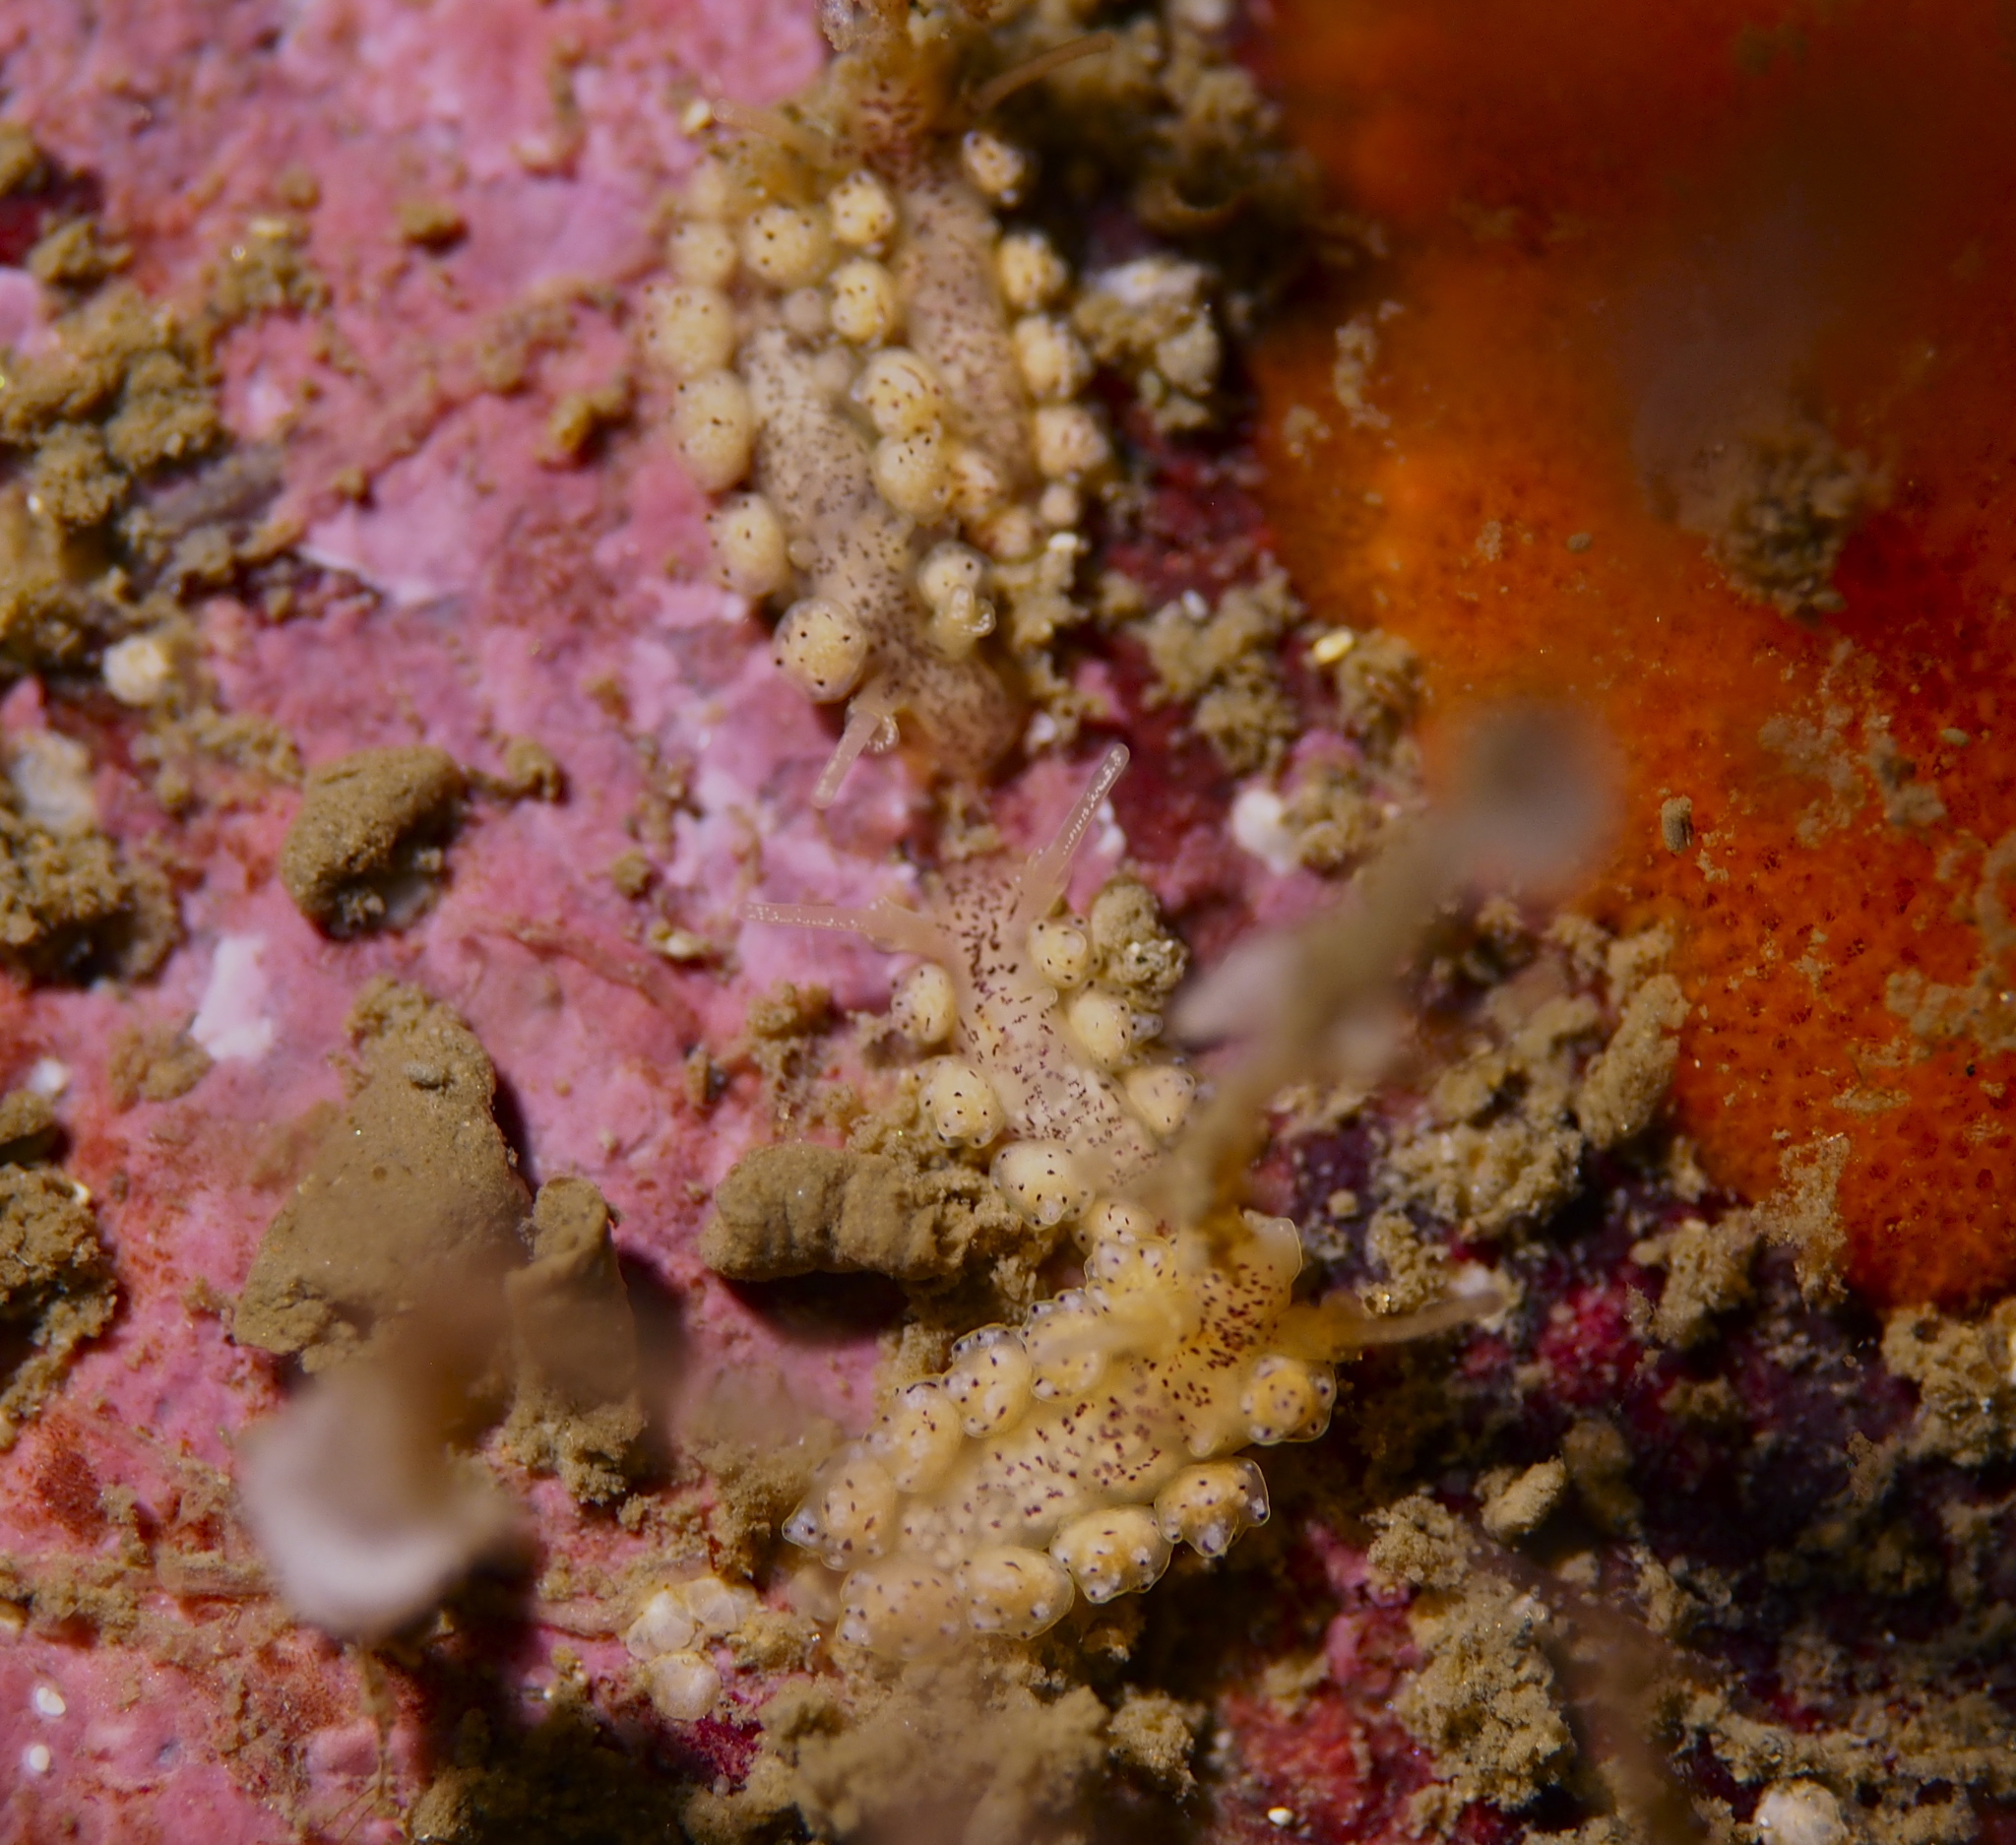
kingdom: Animalia
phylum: Mollusca
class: Gastropoda
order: Nudibranchia
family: Dotidae
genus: Doto
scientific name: Doto dunnei
